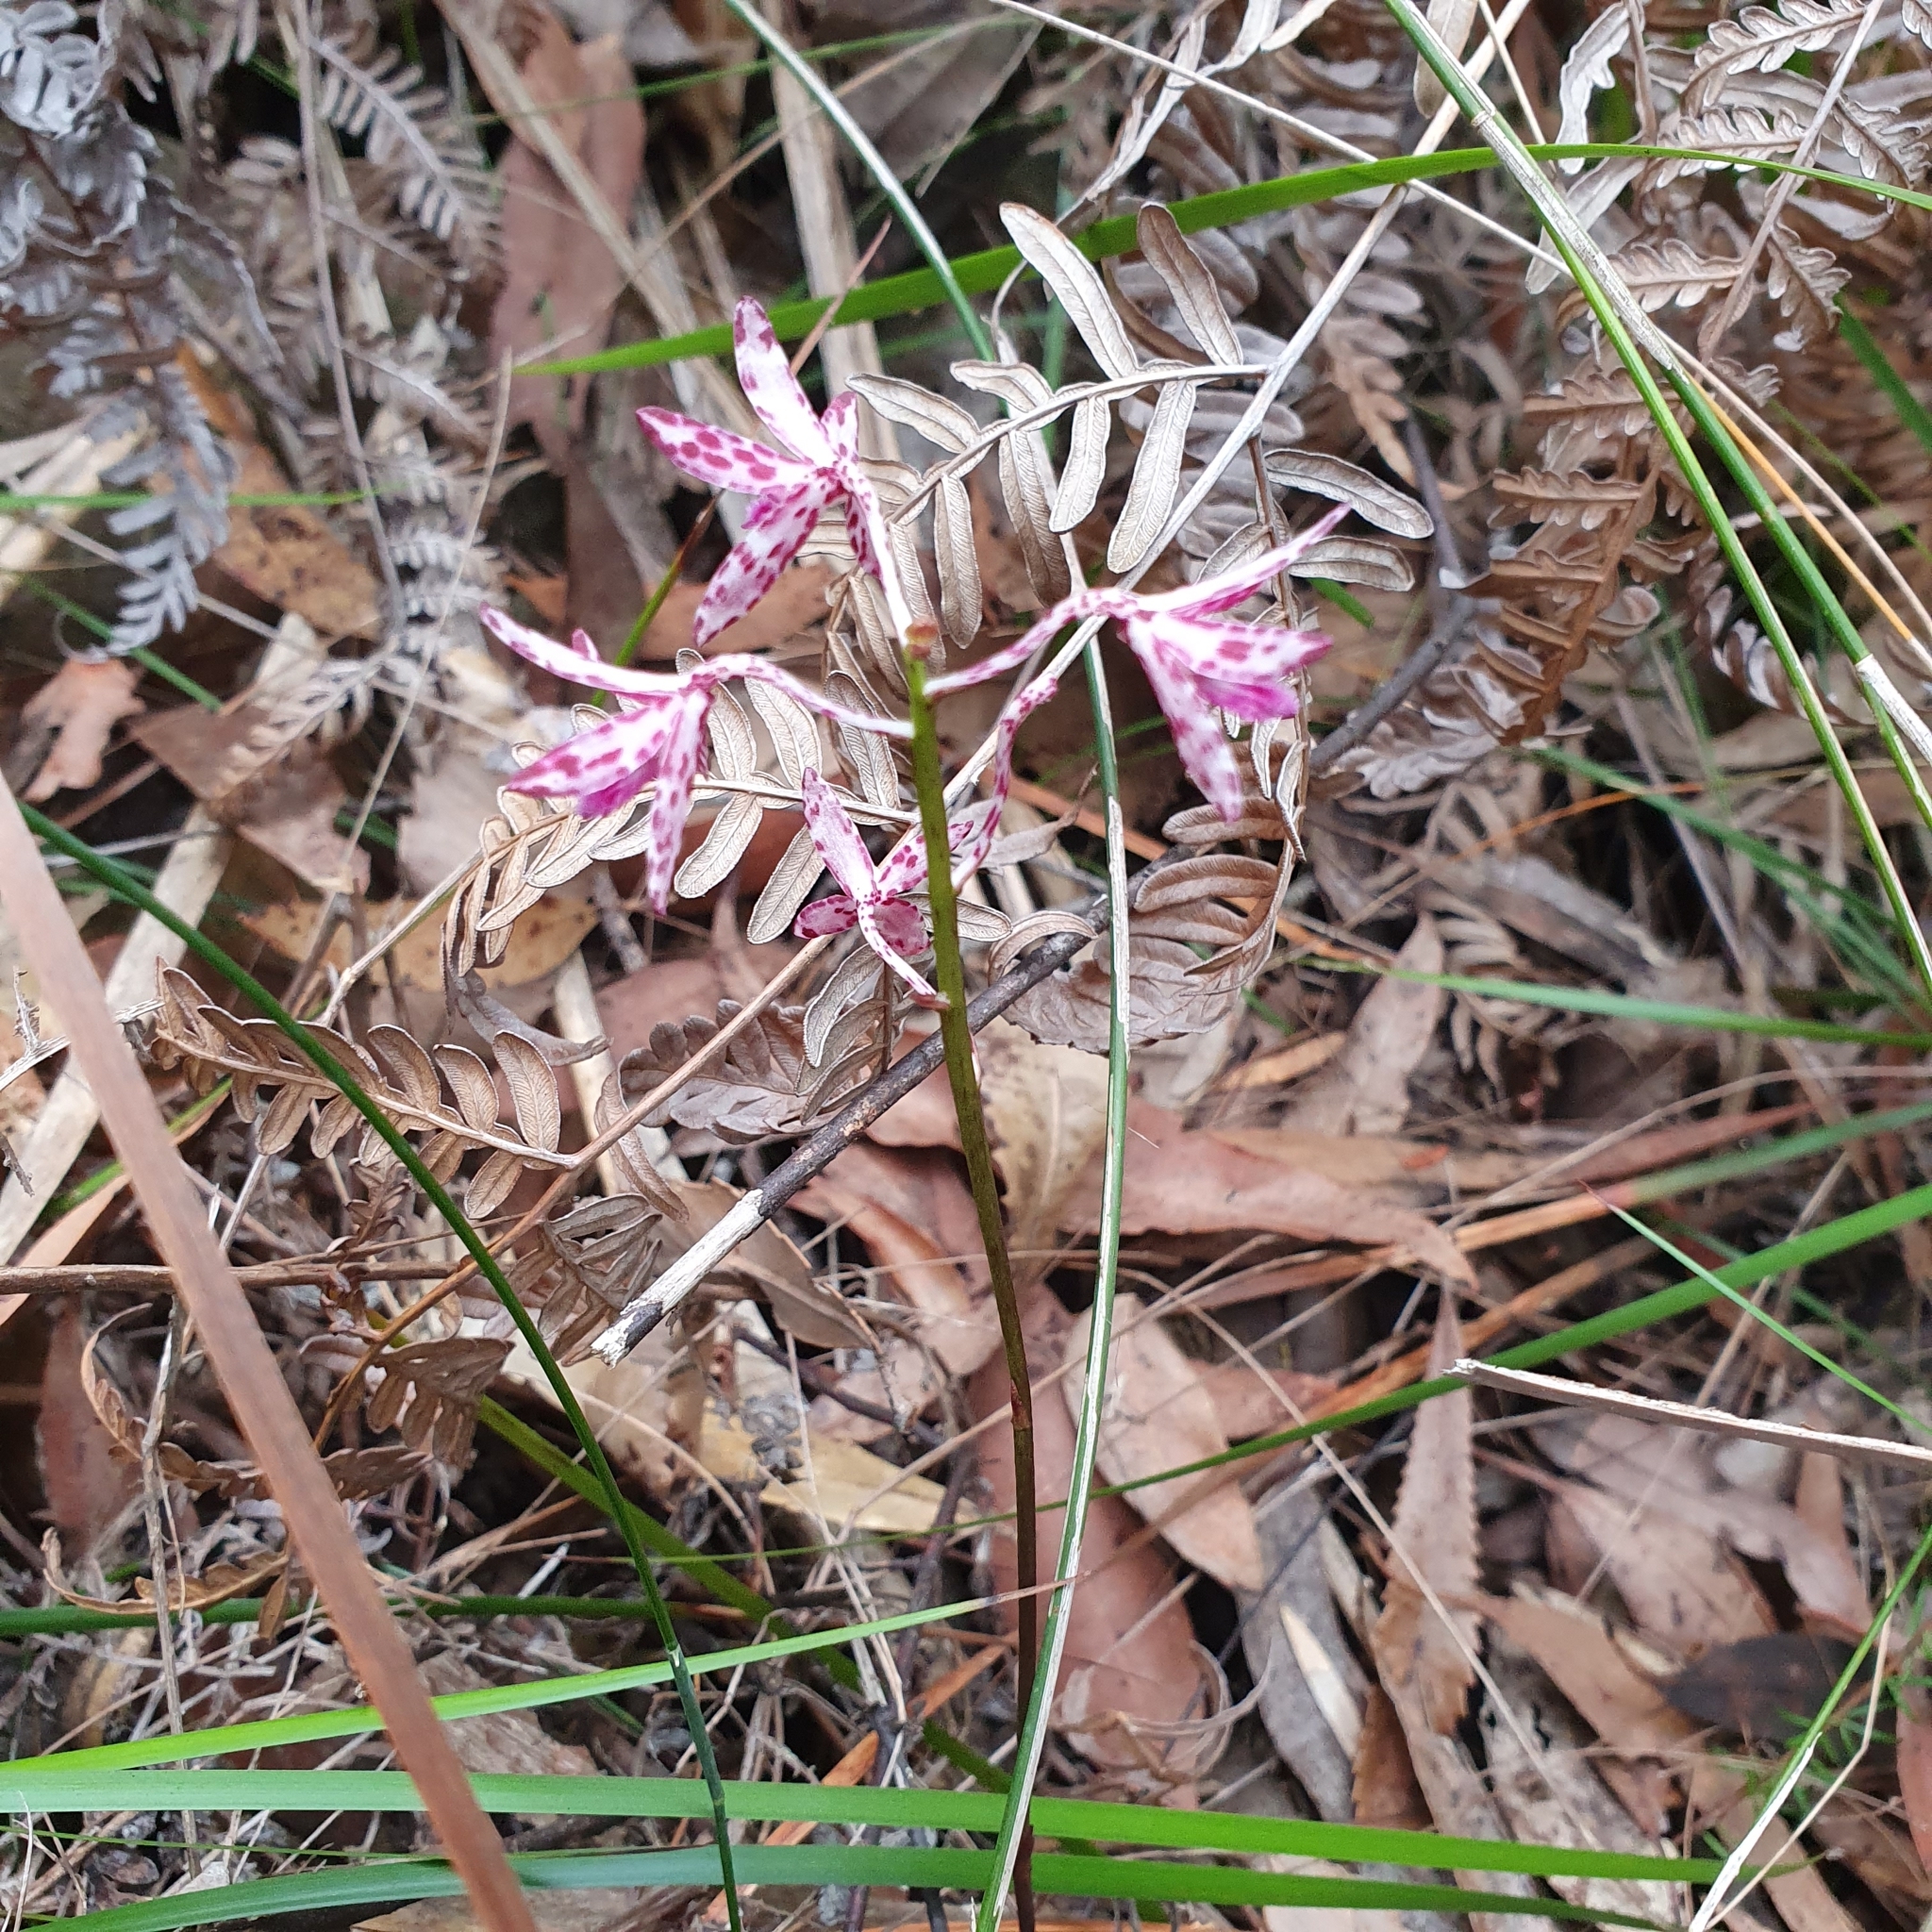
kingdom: Plantae
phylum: Tracheophyta
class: Liliopsida
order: Asparagales
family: Orchidaceae
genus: Dipodium
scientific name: Dipodium variegatum
